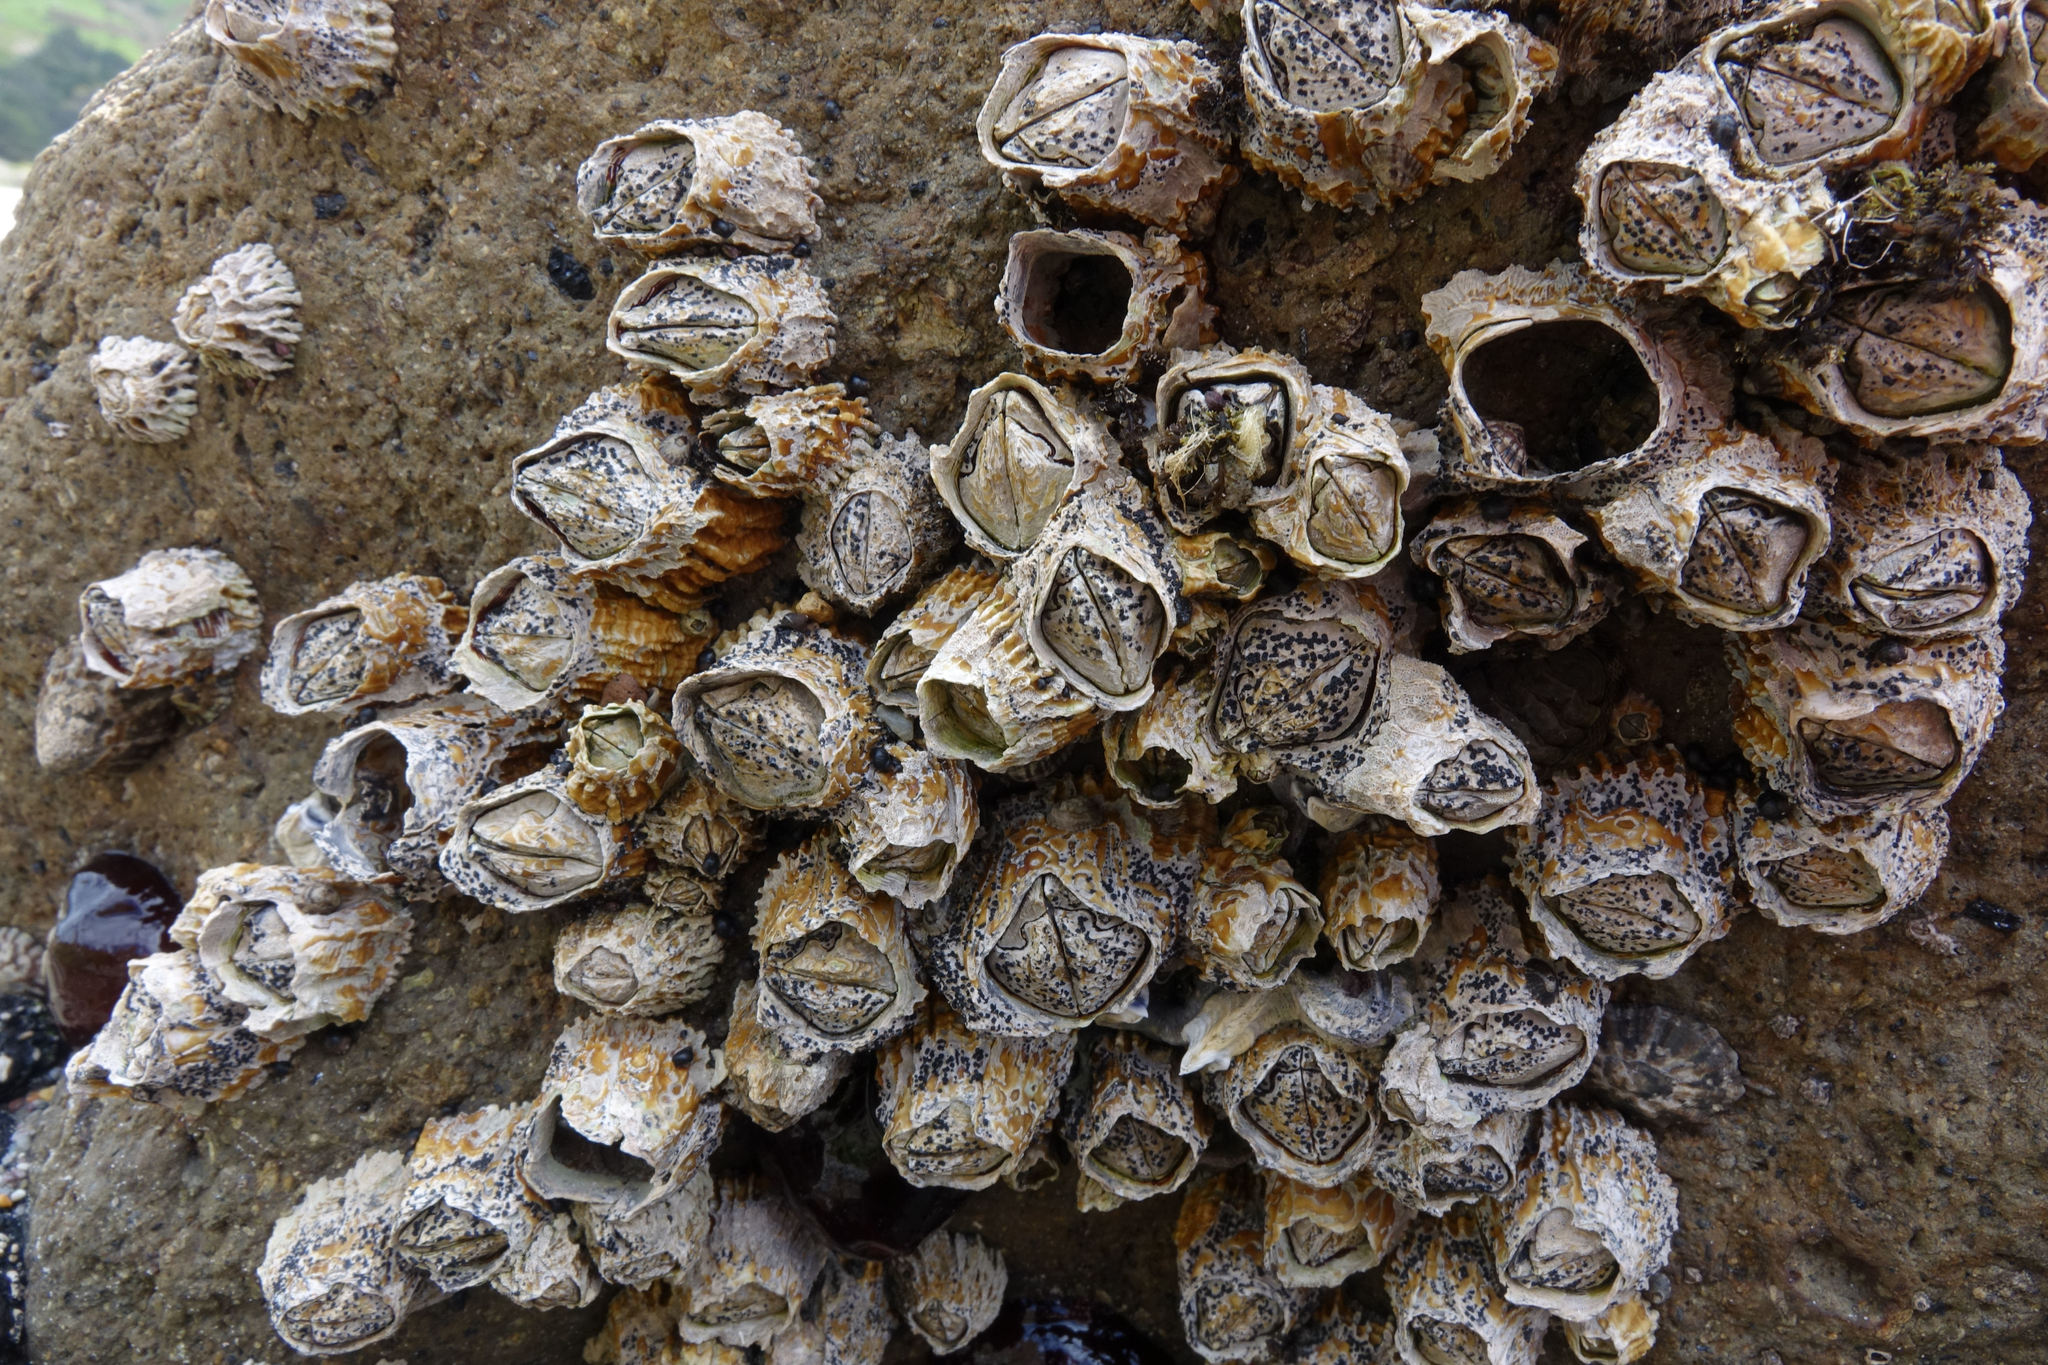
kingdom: Animalia
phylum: Arthropoda
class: Maxillopoda
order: Sessilia
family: Tetraclitidae
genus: Epopella
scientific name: Epopella plicata
